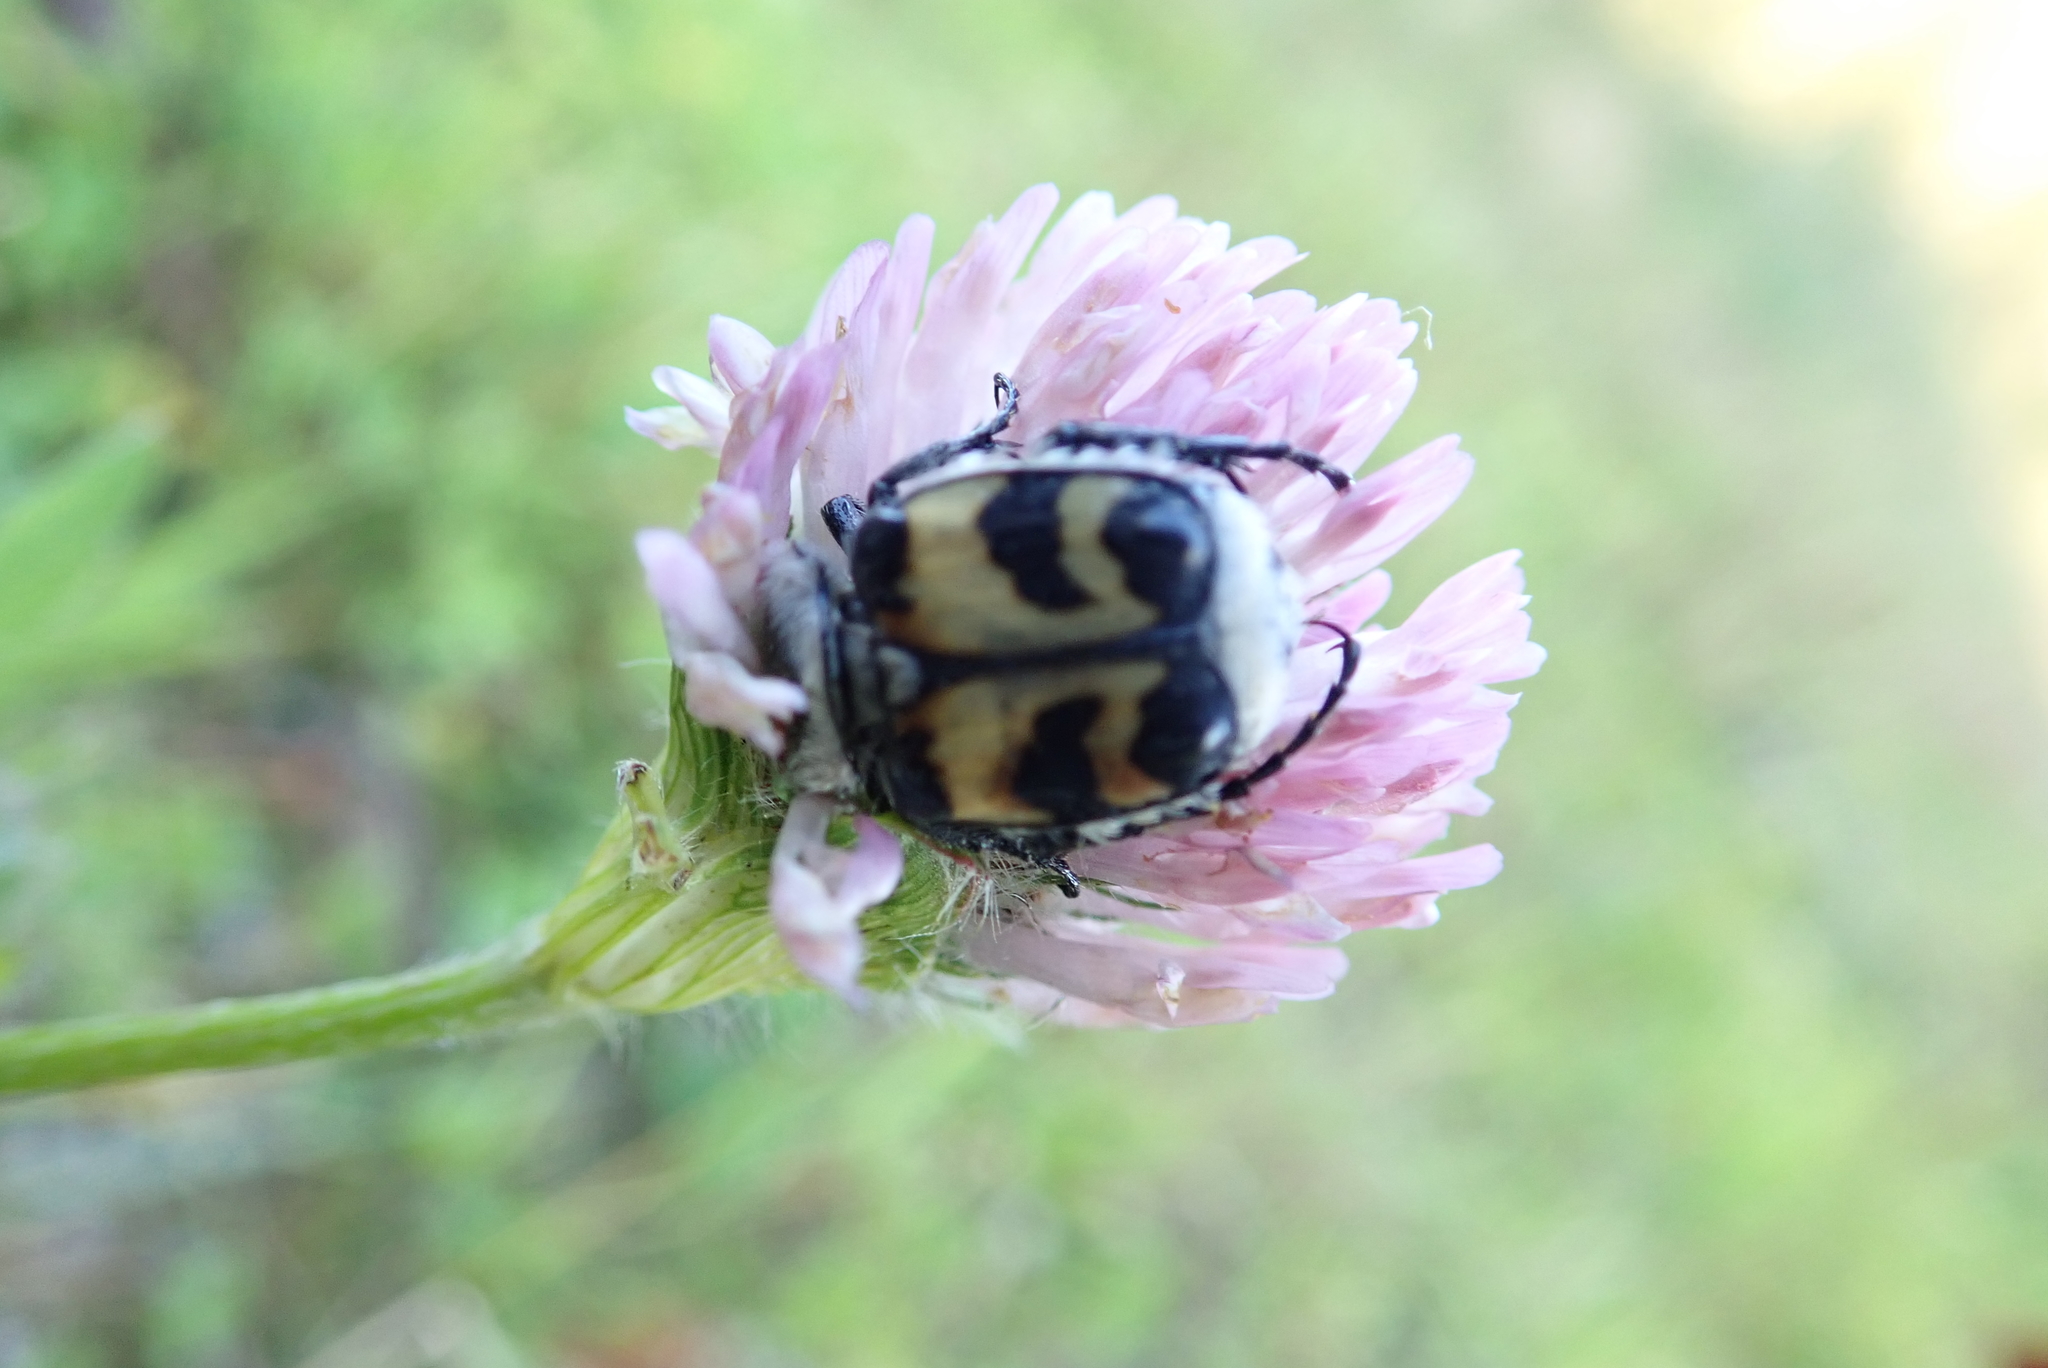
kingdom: Animalia
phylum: Arthropoda
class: Insecta
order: Coleoptera
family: Scarabaeidae
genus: Trichius
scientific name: Trichius fasciatus
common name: Bee beetle
